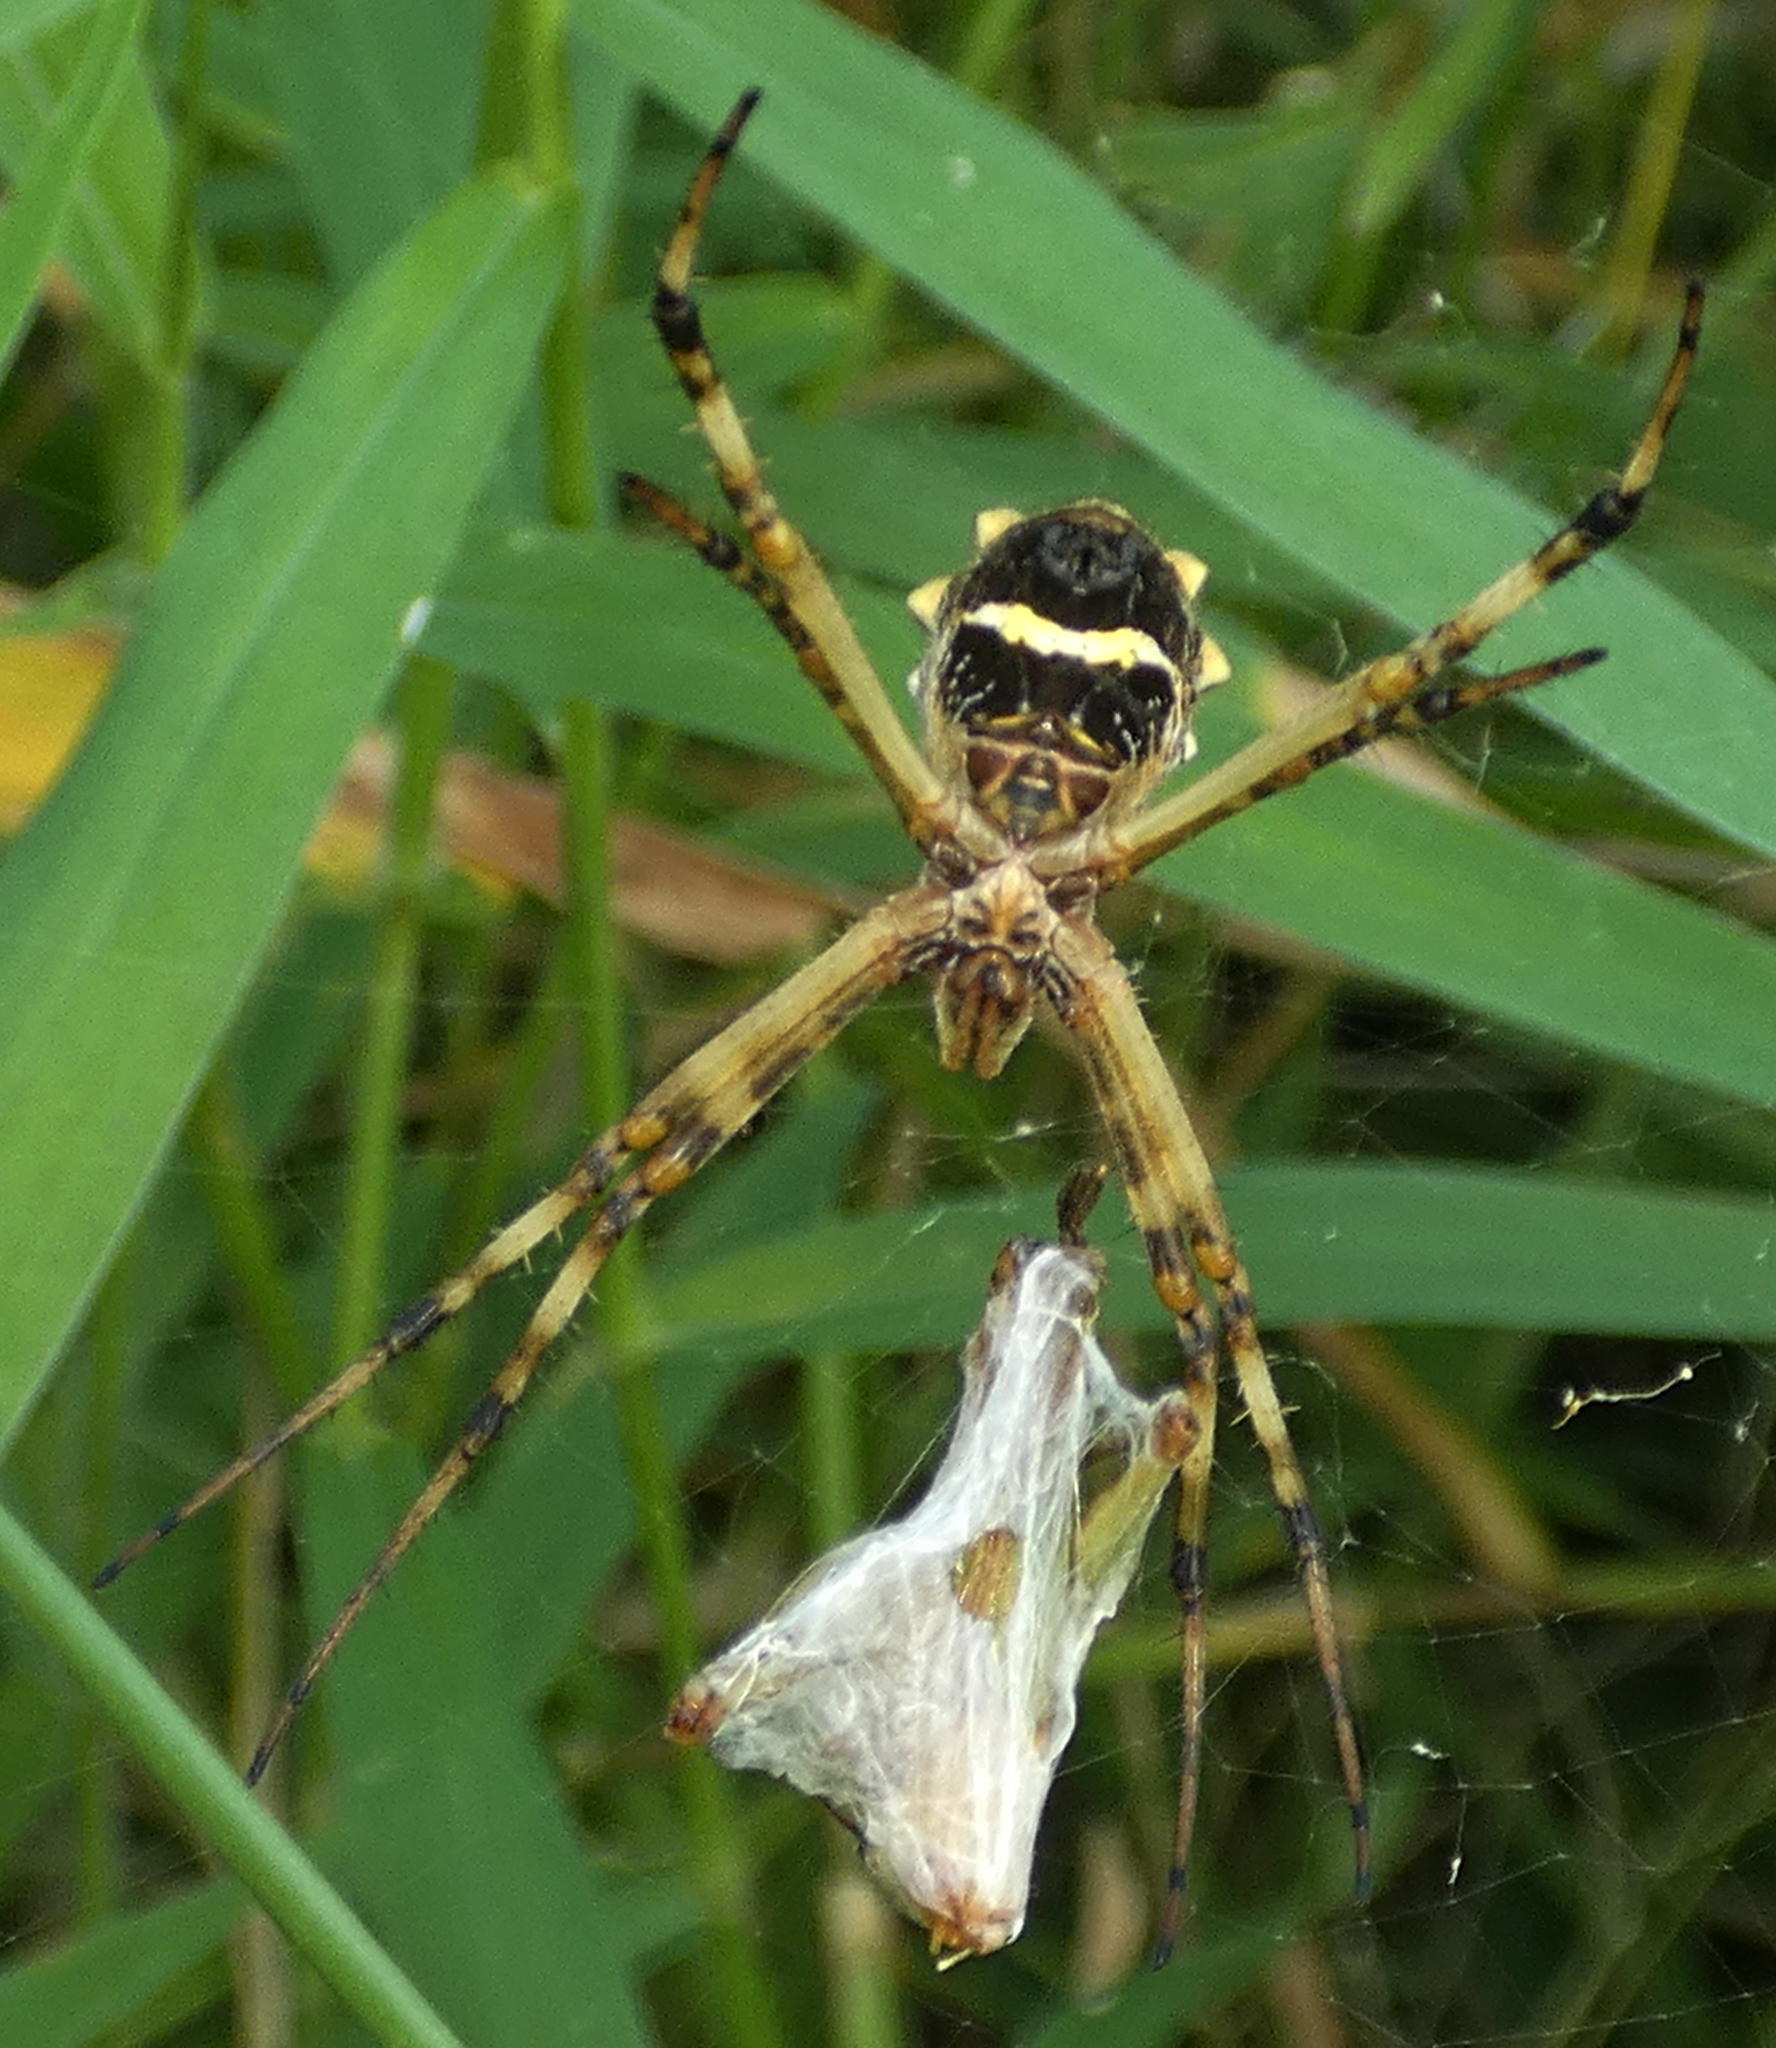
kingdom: Animalia
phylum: Arthropoda
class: Arachnida
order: Araneae
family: Araneidae
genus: Argiope
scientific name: Argiope argentata
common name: Orb weavers
